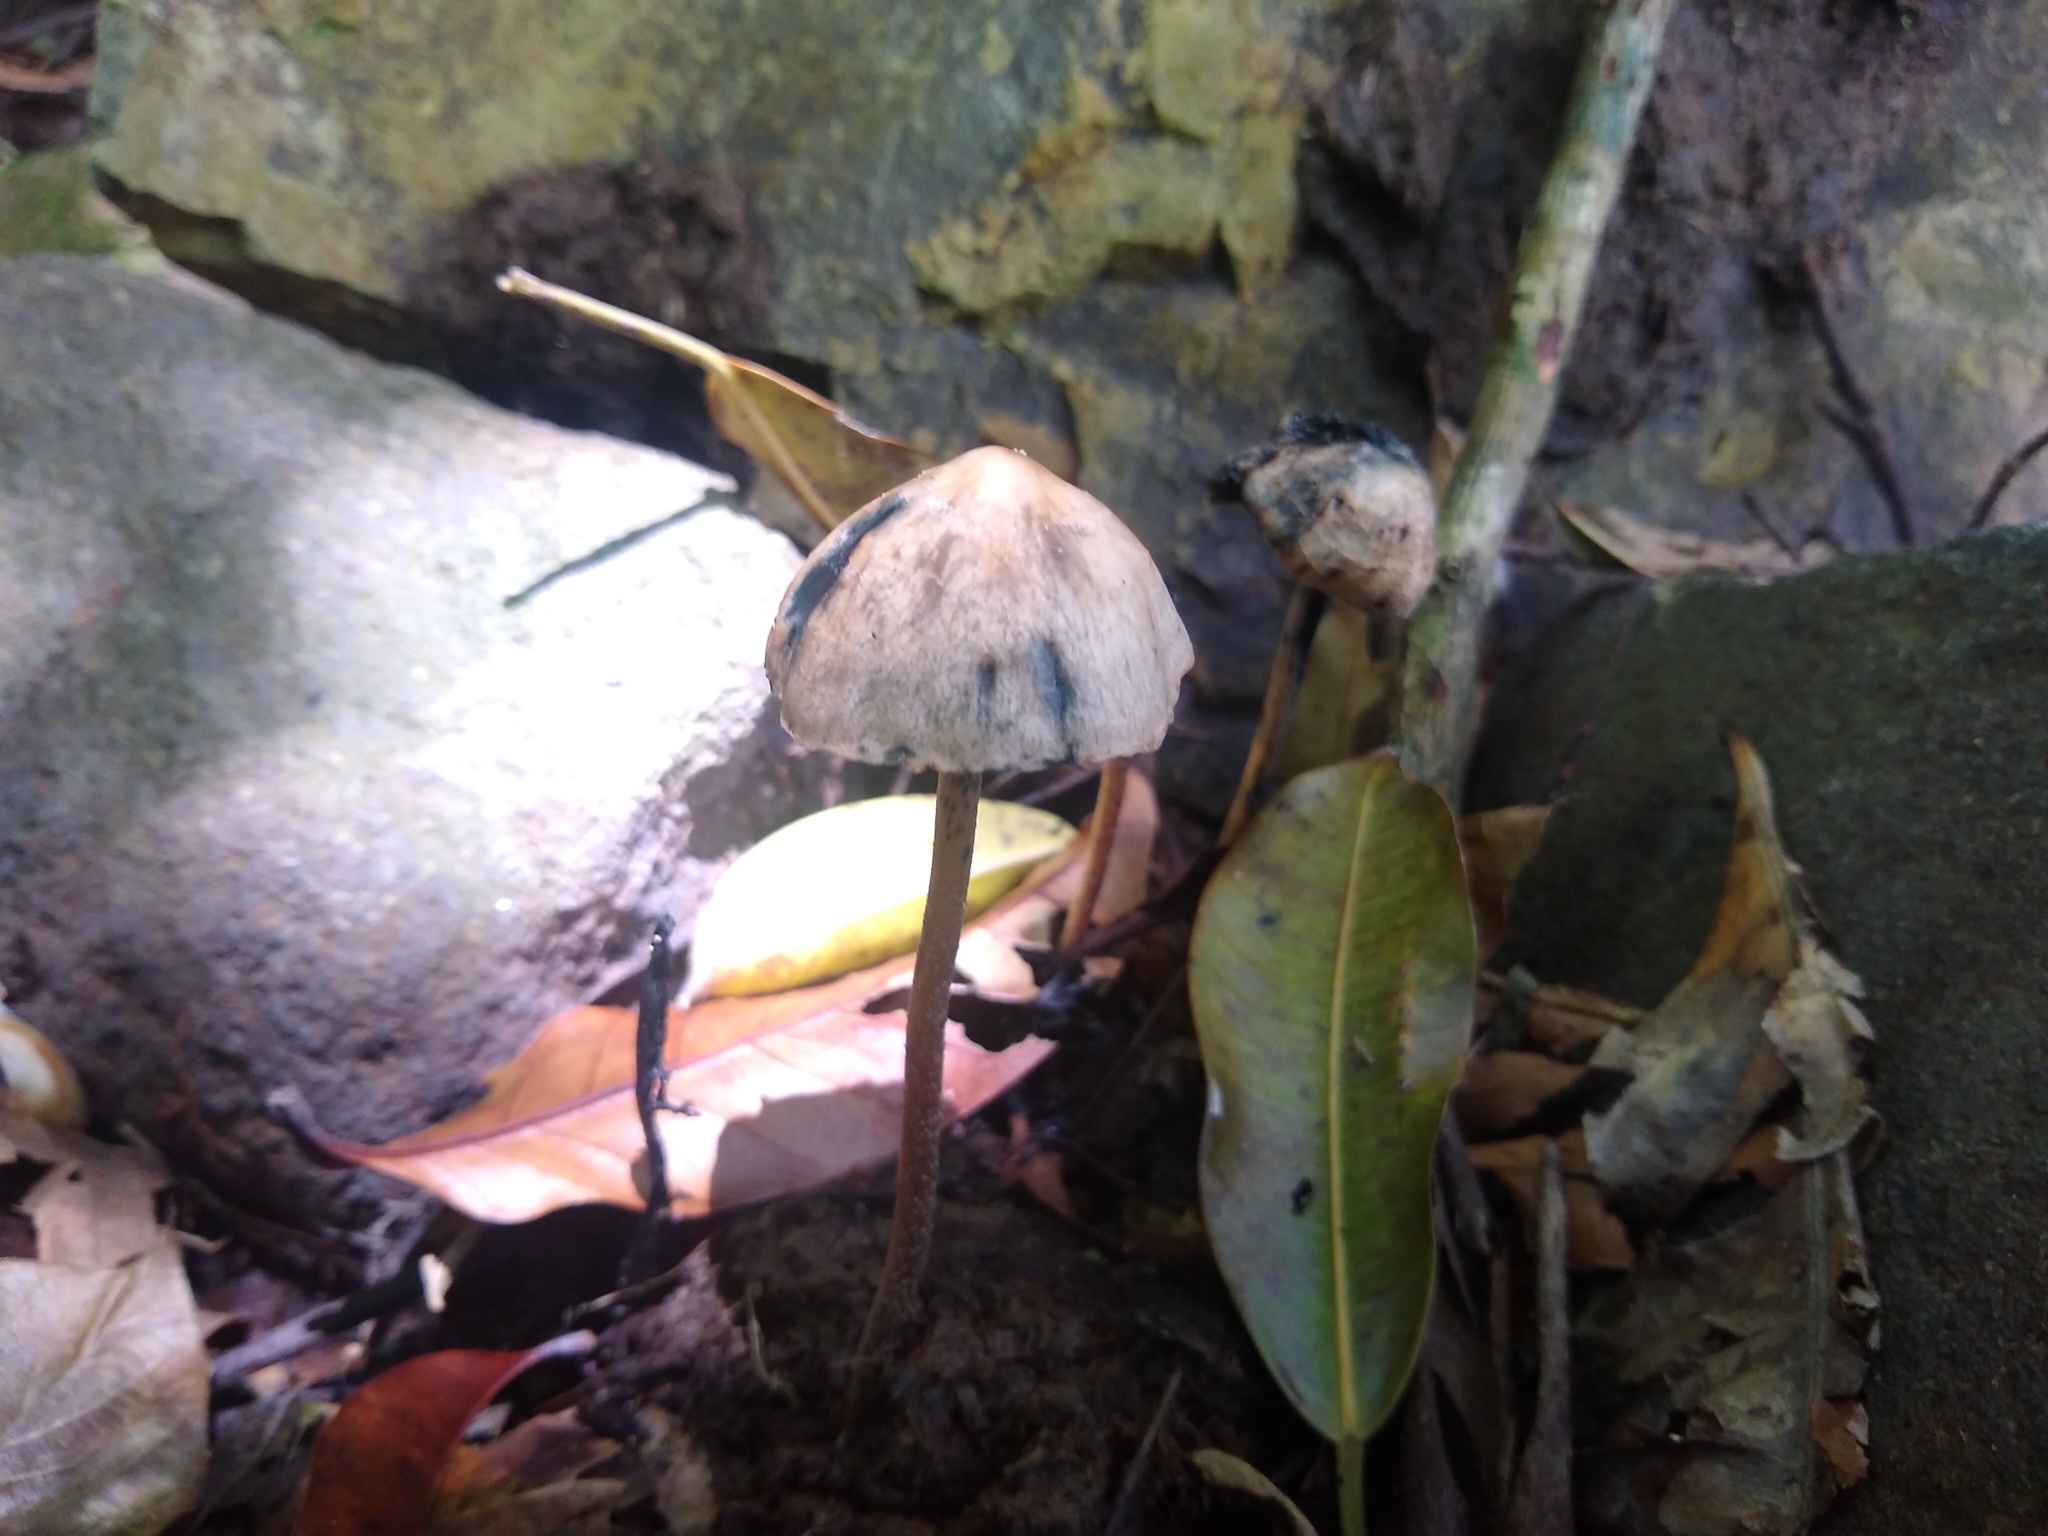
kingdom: Fungi
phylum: Basidiomycota
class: Agaricomycetes
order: Agaricales
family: Bolbitiaceae
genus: Panaeolus
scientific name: Panaeolus cyanescens
